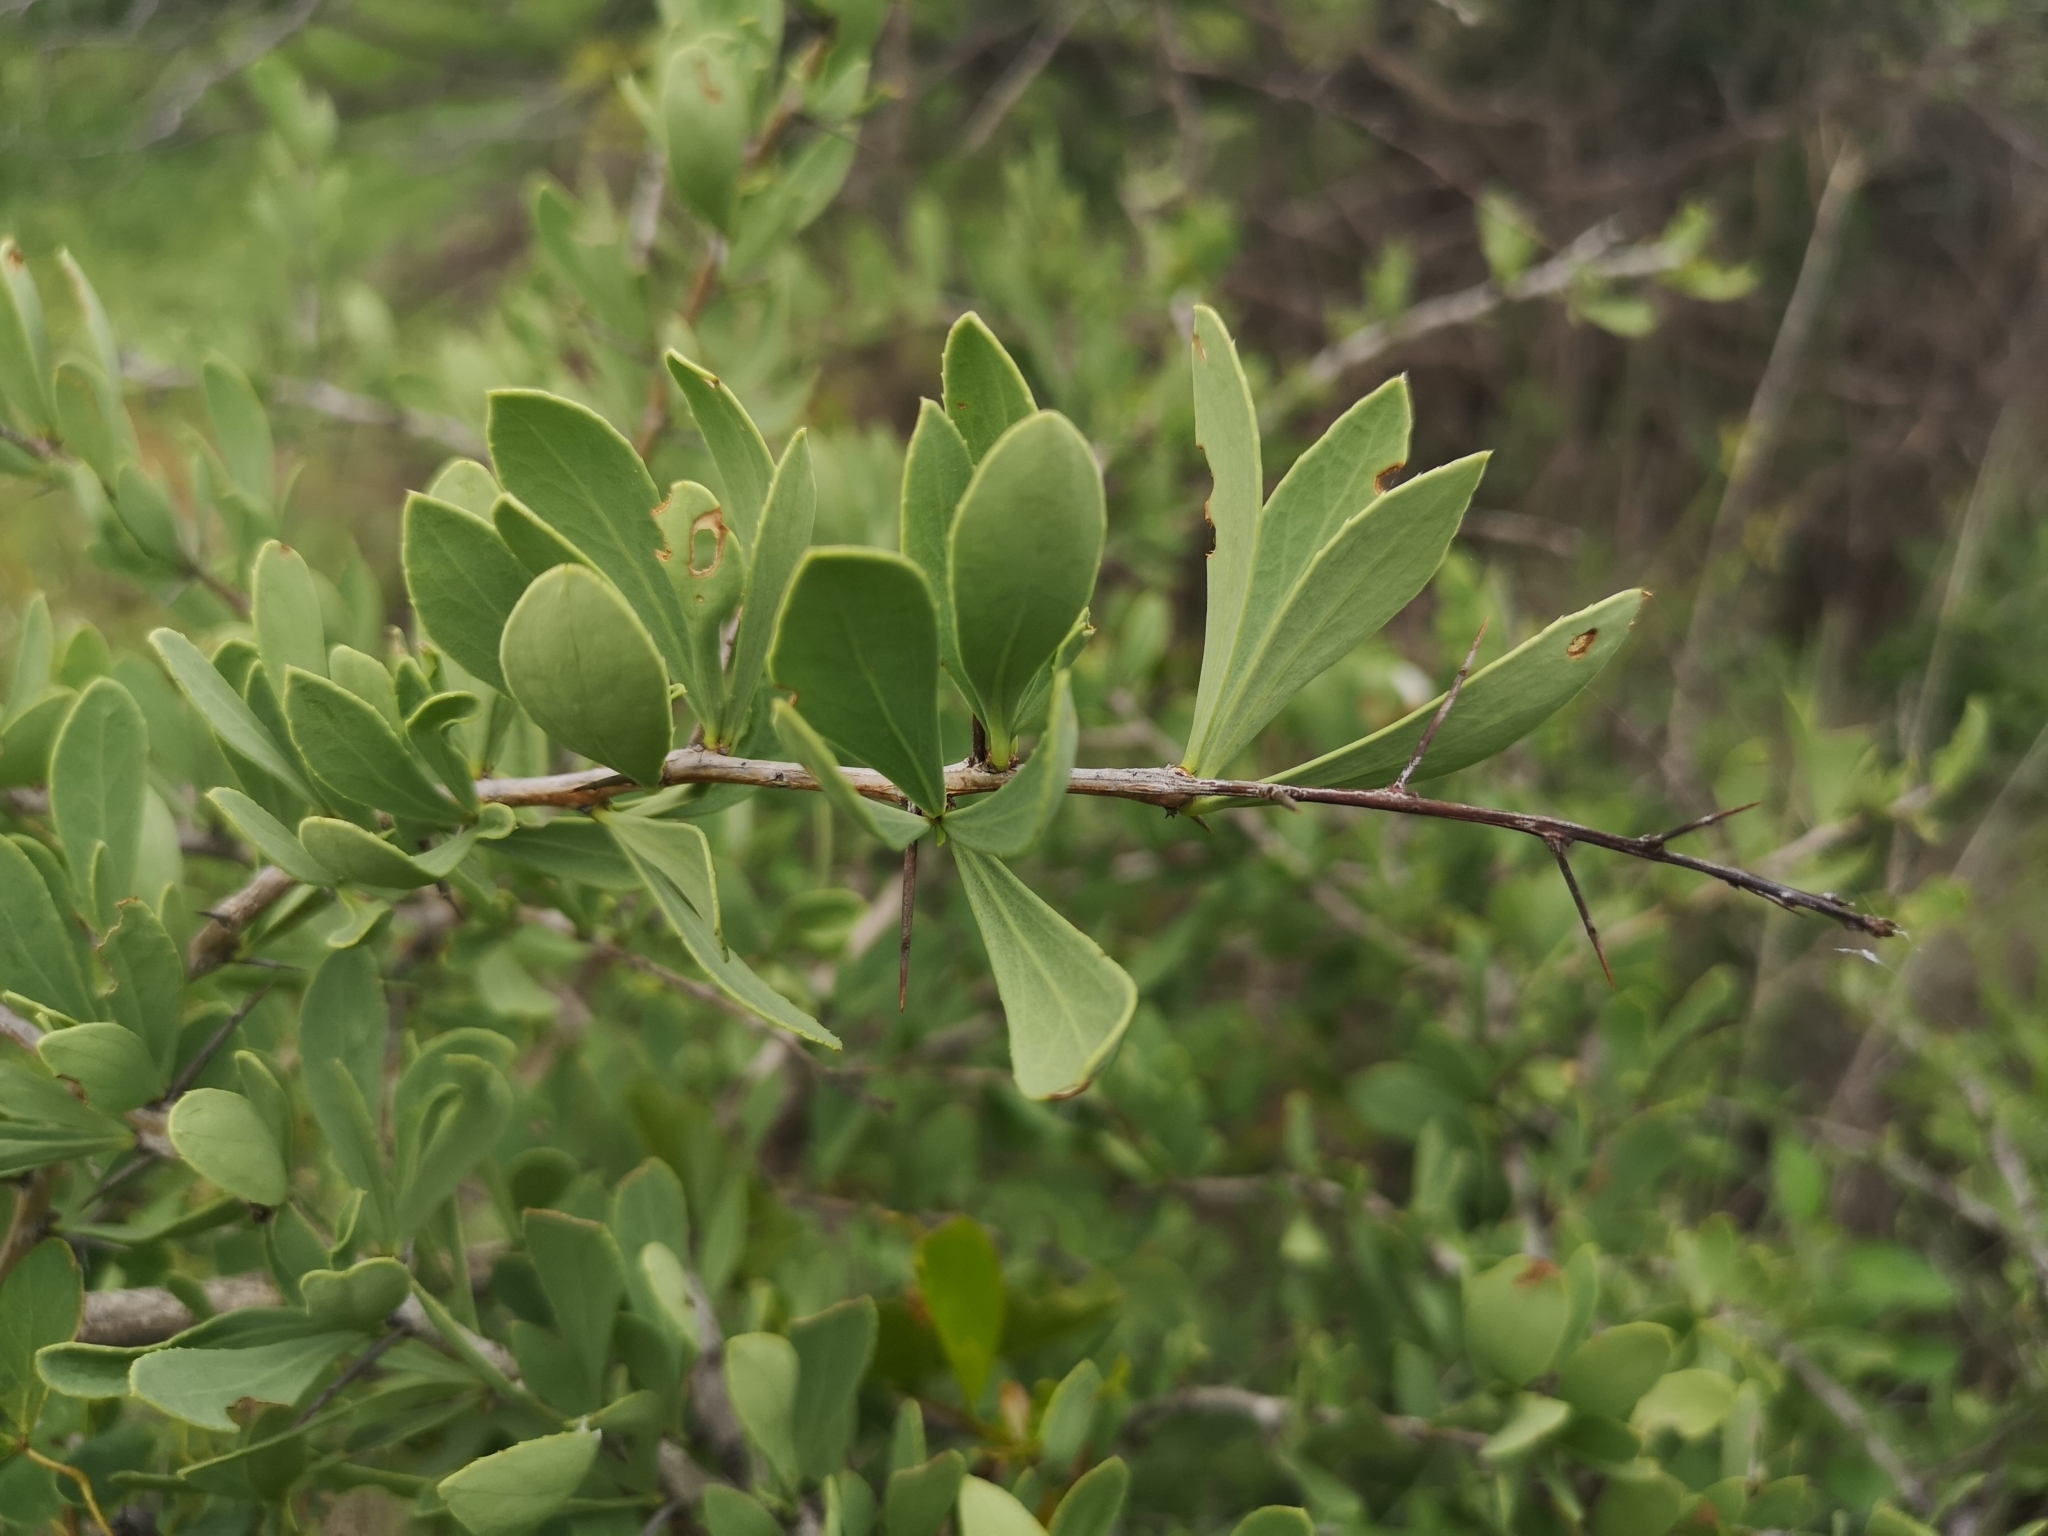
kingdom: Plantae
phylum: Tracheophyta
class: Magnoliopsida
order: Celastrales
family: Celastraceae
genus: Gymnosporia
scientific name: Gymnosporia buxifolia
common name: Common spike-thorn
